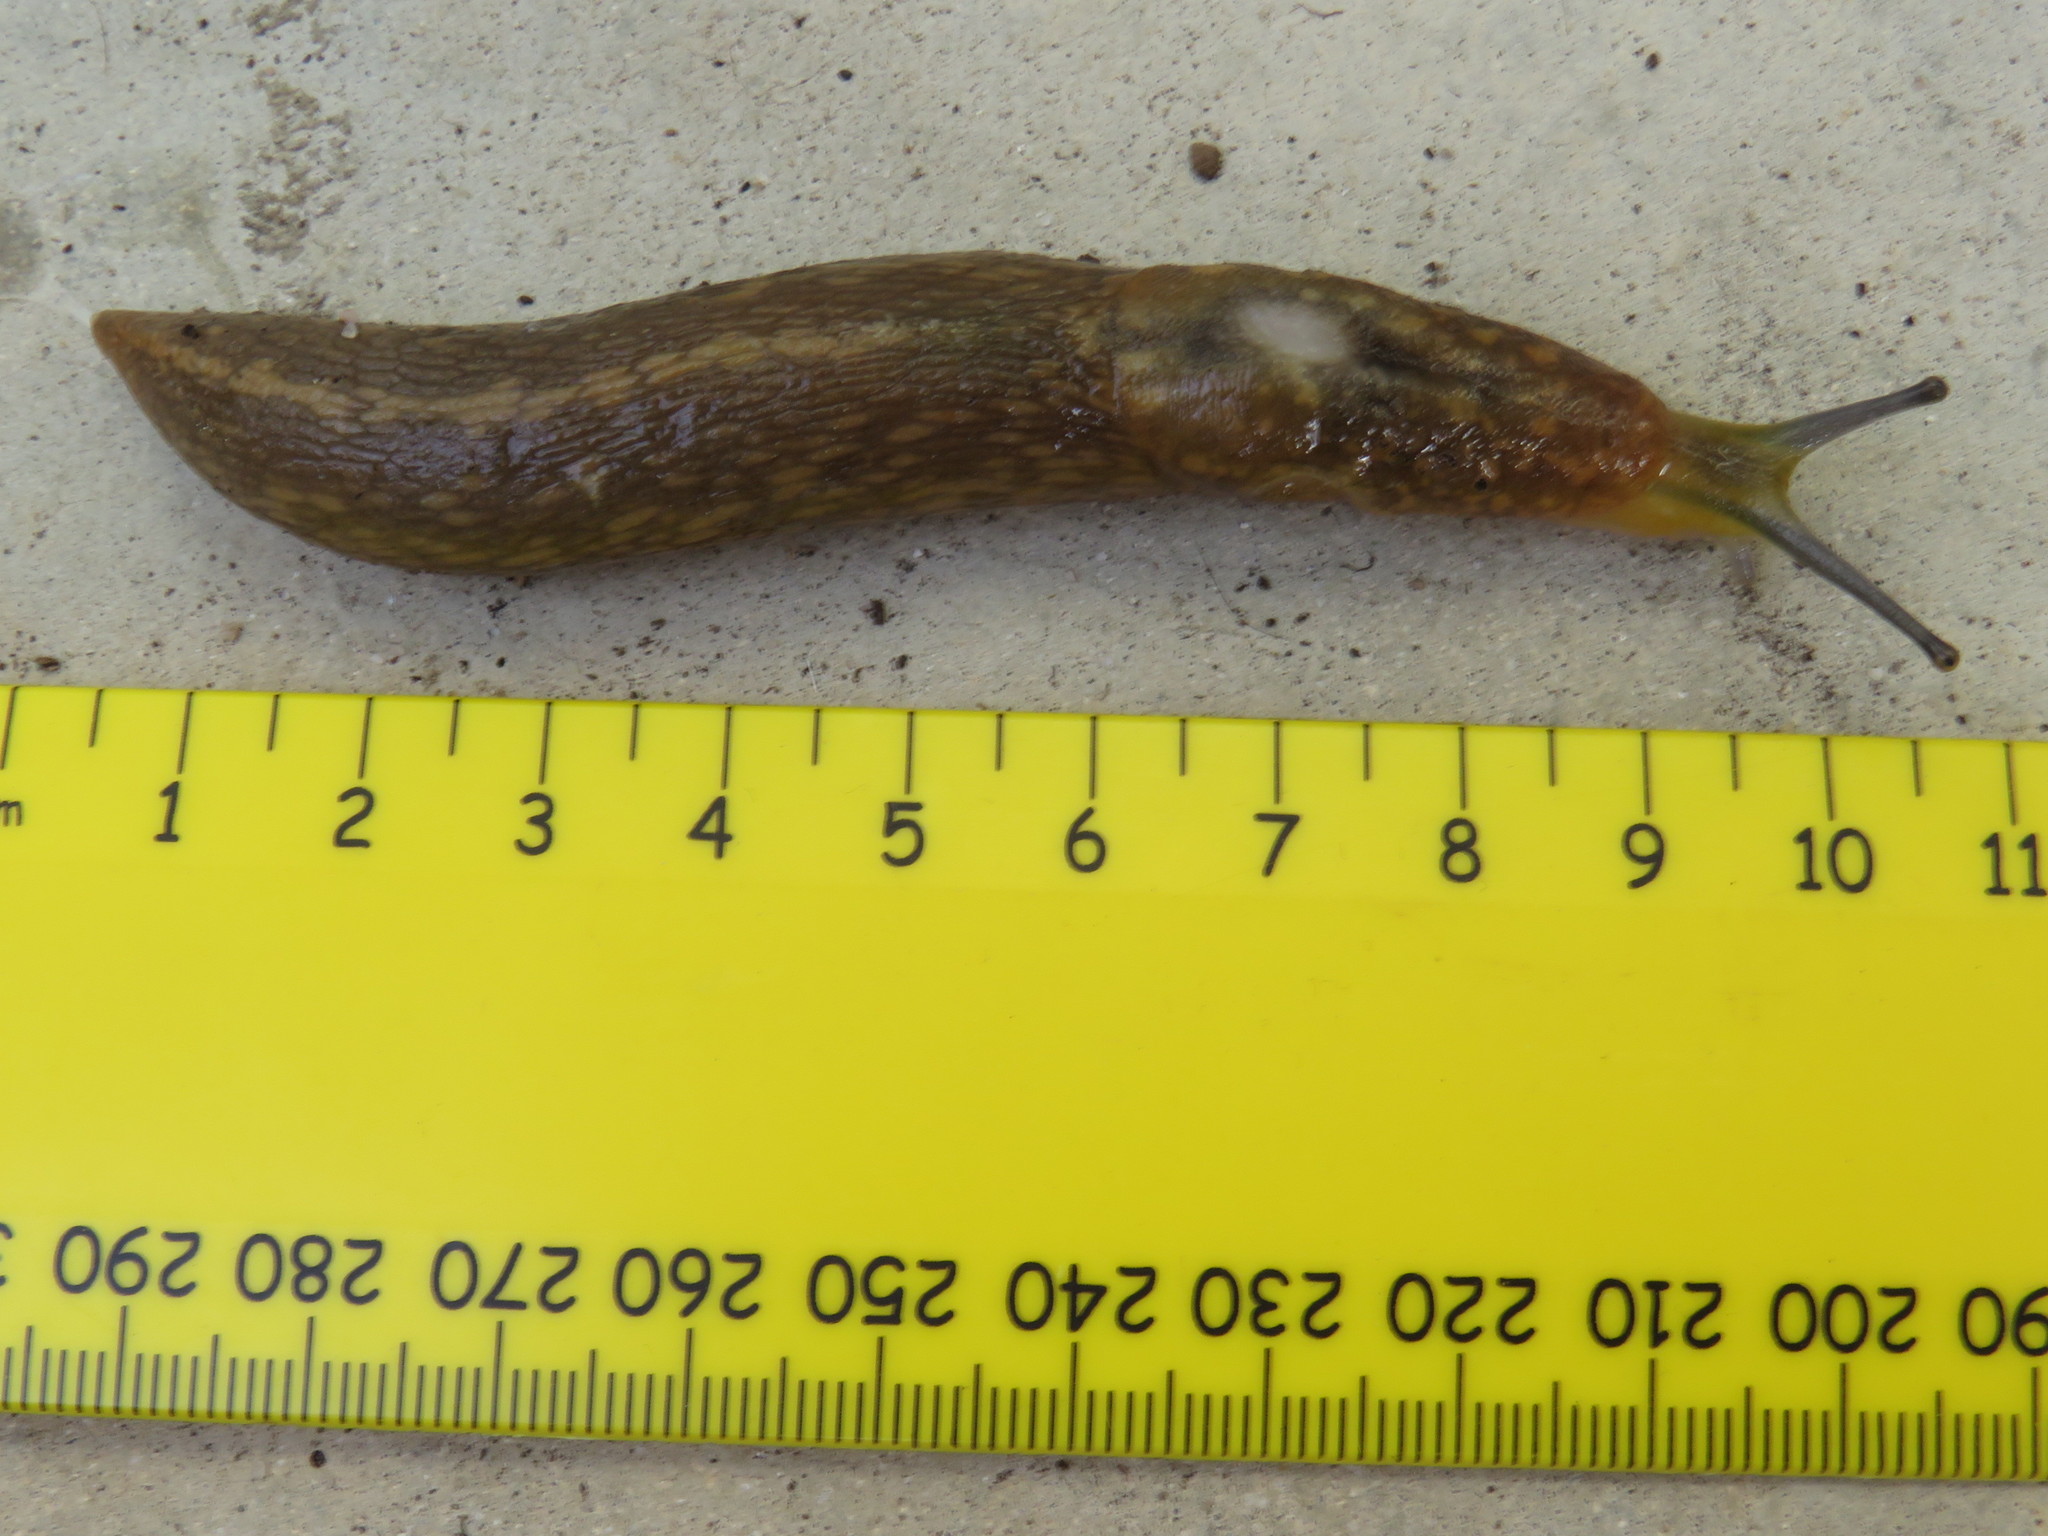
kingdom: Animalia
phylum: Mollusca
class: Gastropoda
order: Stylommatophora
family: Limacidae
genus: Limacus
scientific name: Limacus flavus
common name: Yellow gardenslug
